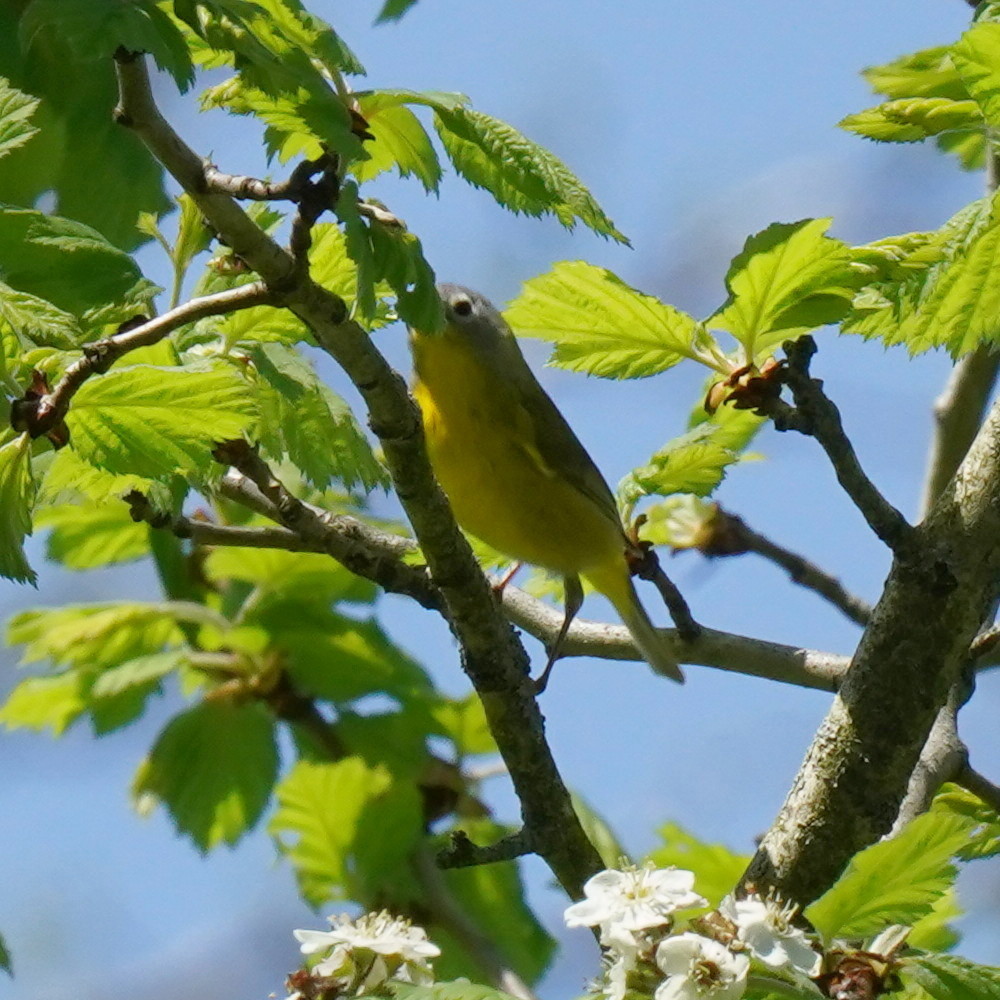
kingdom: Animalia
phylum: Chordata
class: Aves
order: Passeriformes
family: Parulidae
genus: Leiothlypis
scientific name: Leiothlypis ruficapilla
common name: Nashville warbler
